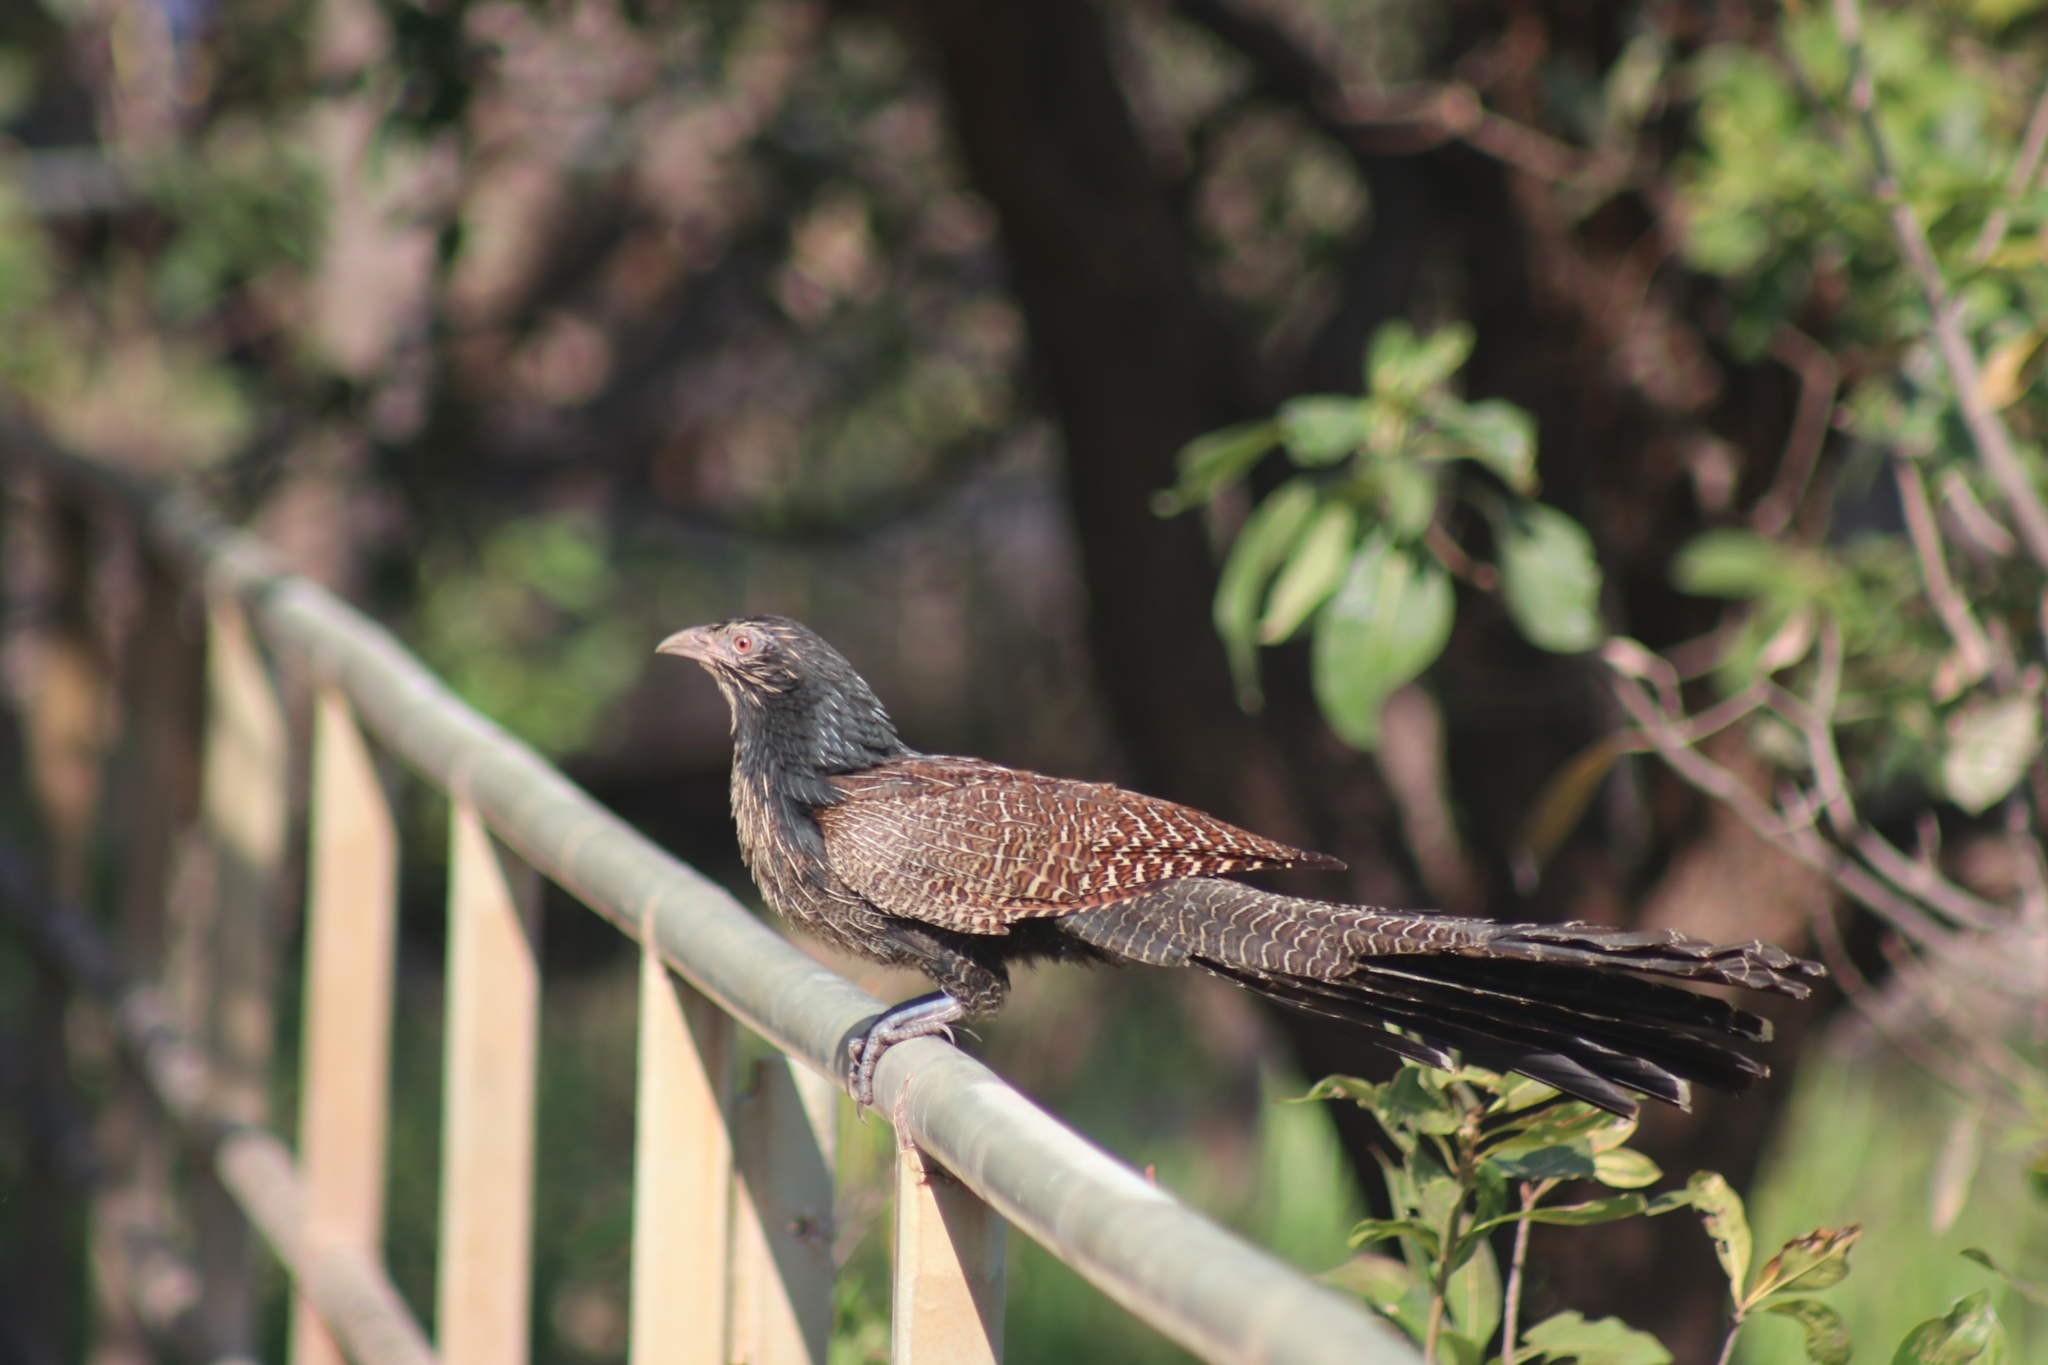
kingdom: Animalia
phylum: Chordata
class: Aves
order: Cuculiformes
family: Cuculidae
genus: Centropus
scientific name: Centropus phasianinus
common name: Pheasant coucal
